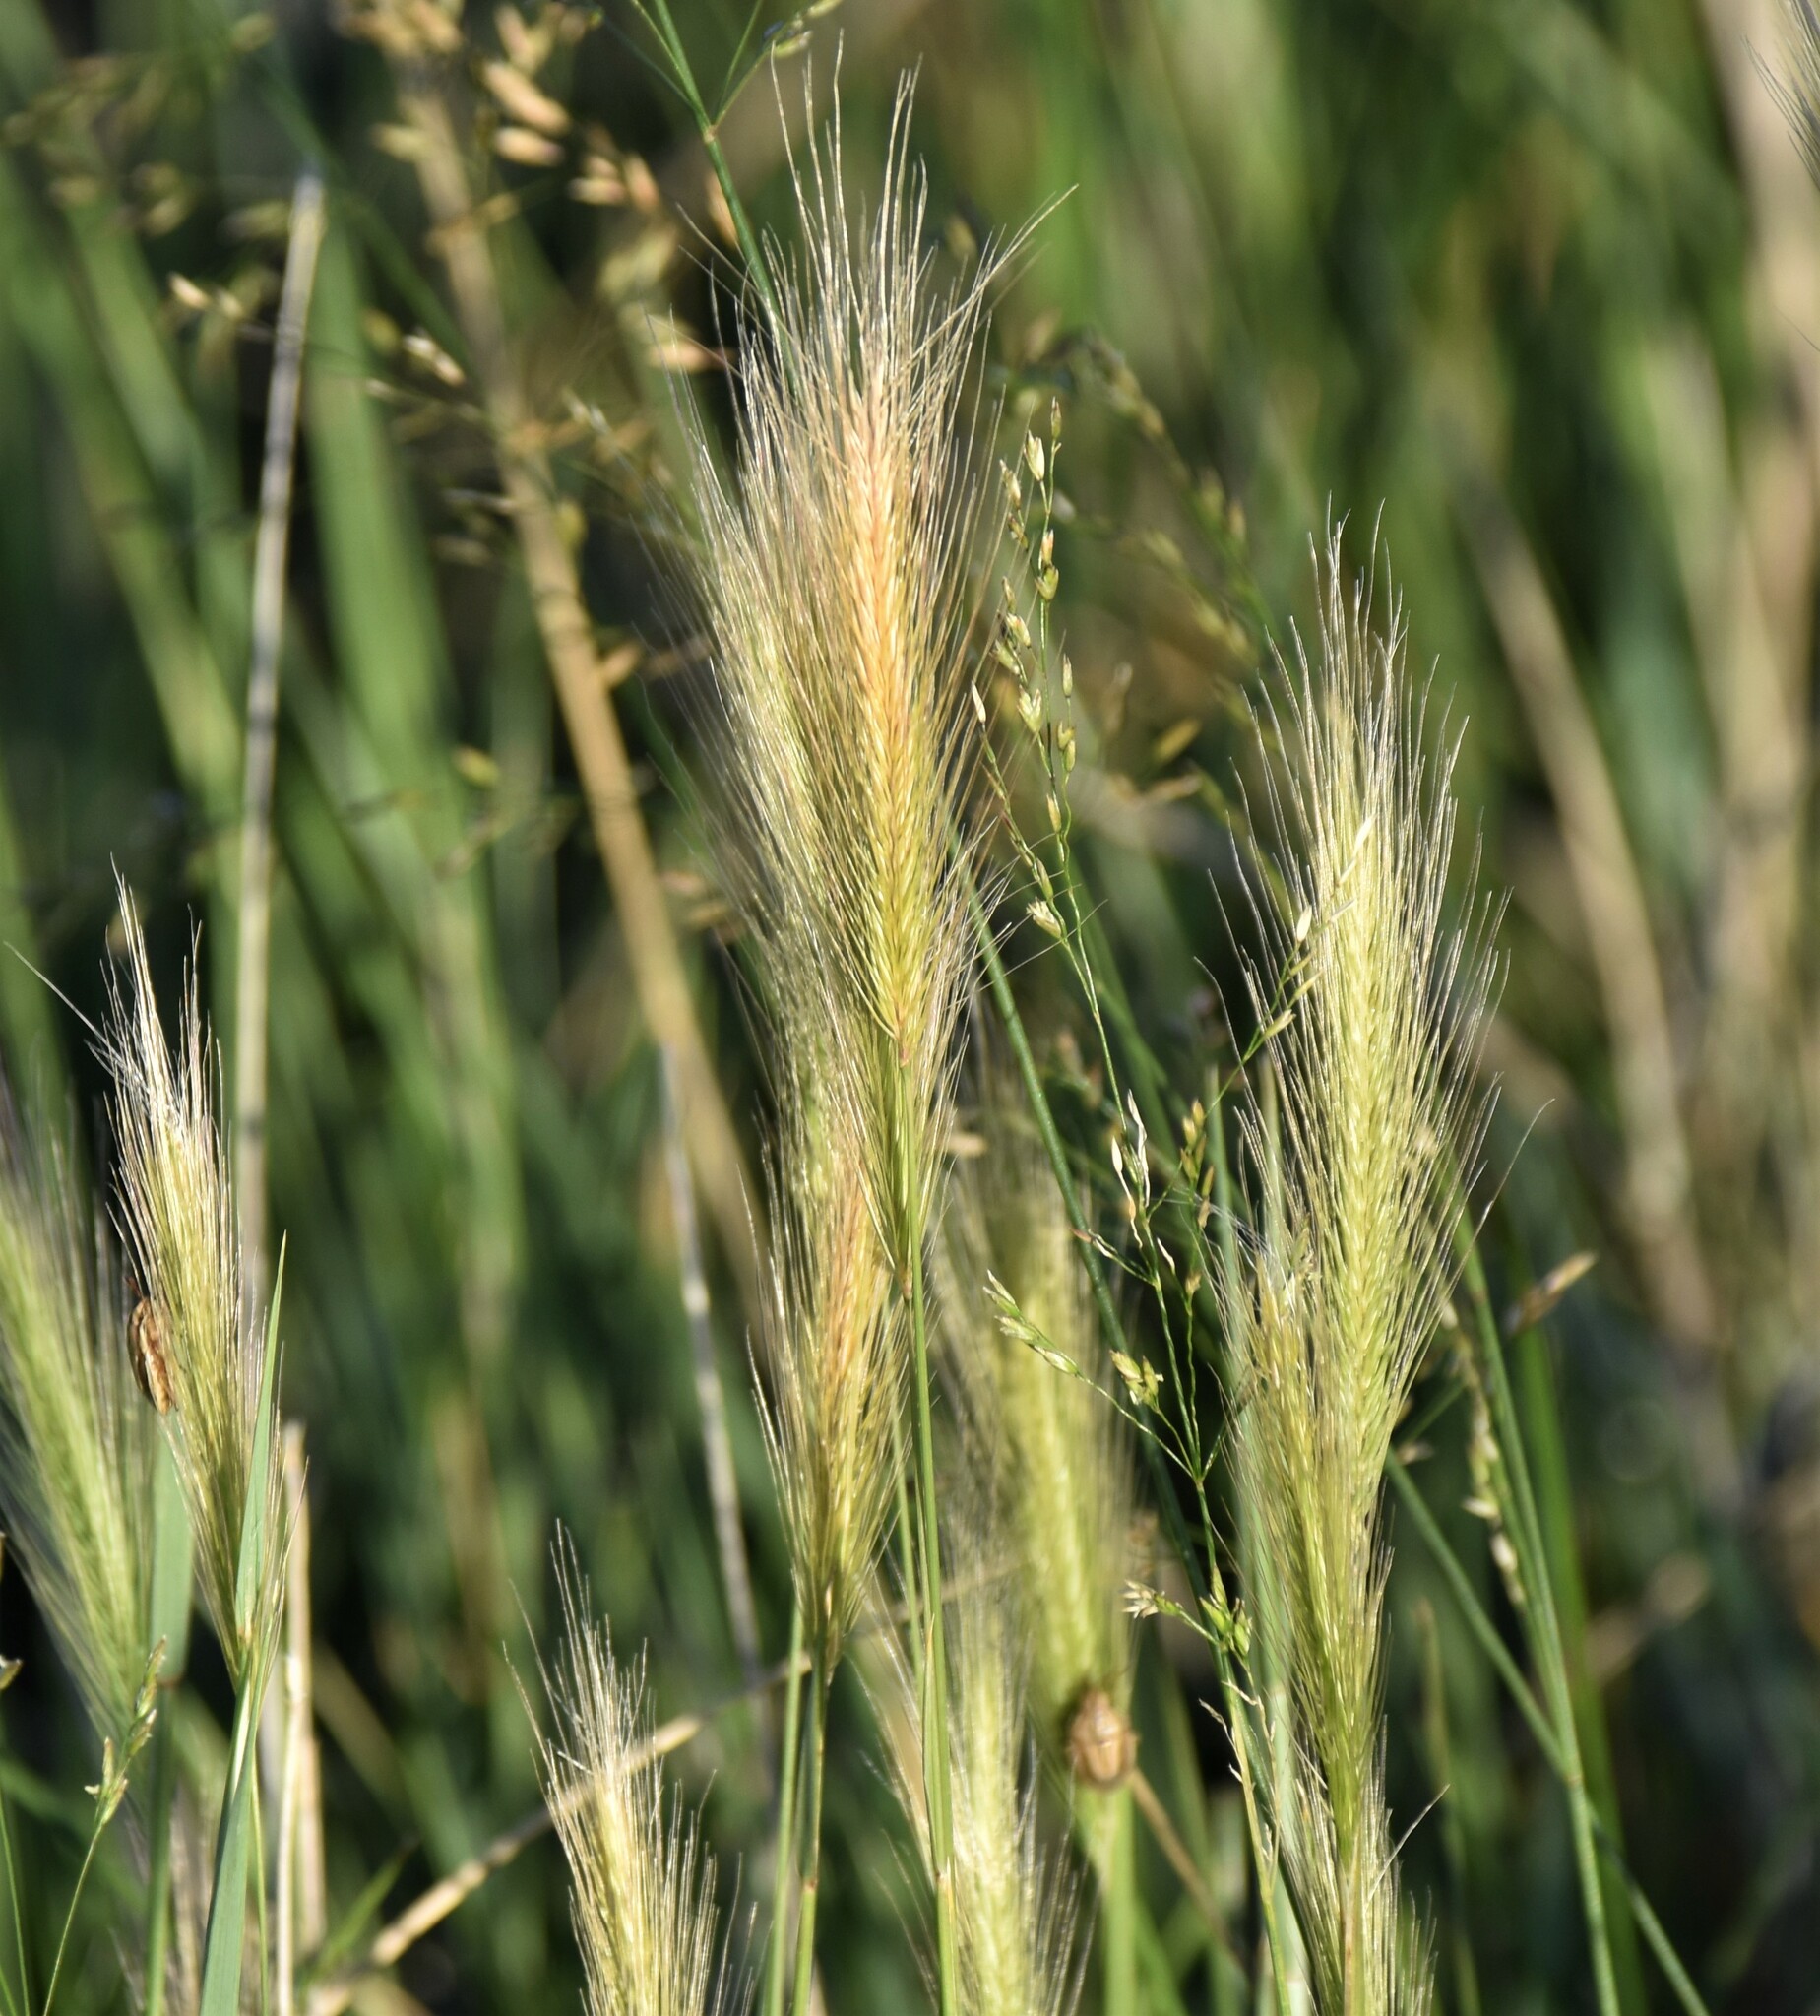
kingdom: Plantae
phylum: Tracheophyta
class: Liliopsida
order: Poales
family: Poaceae
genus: Hordeum
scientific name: Hordeum jubatum
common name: Foxtail barley
